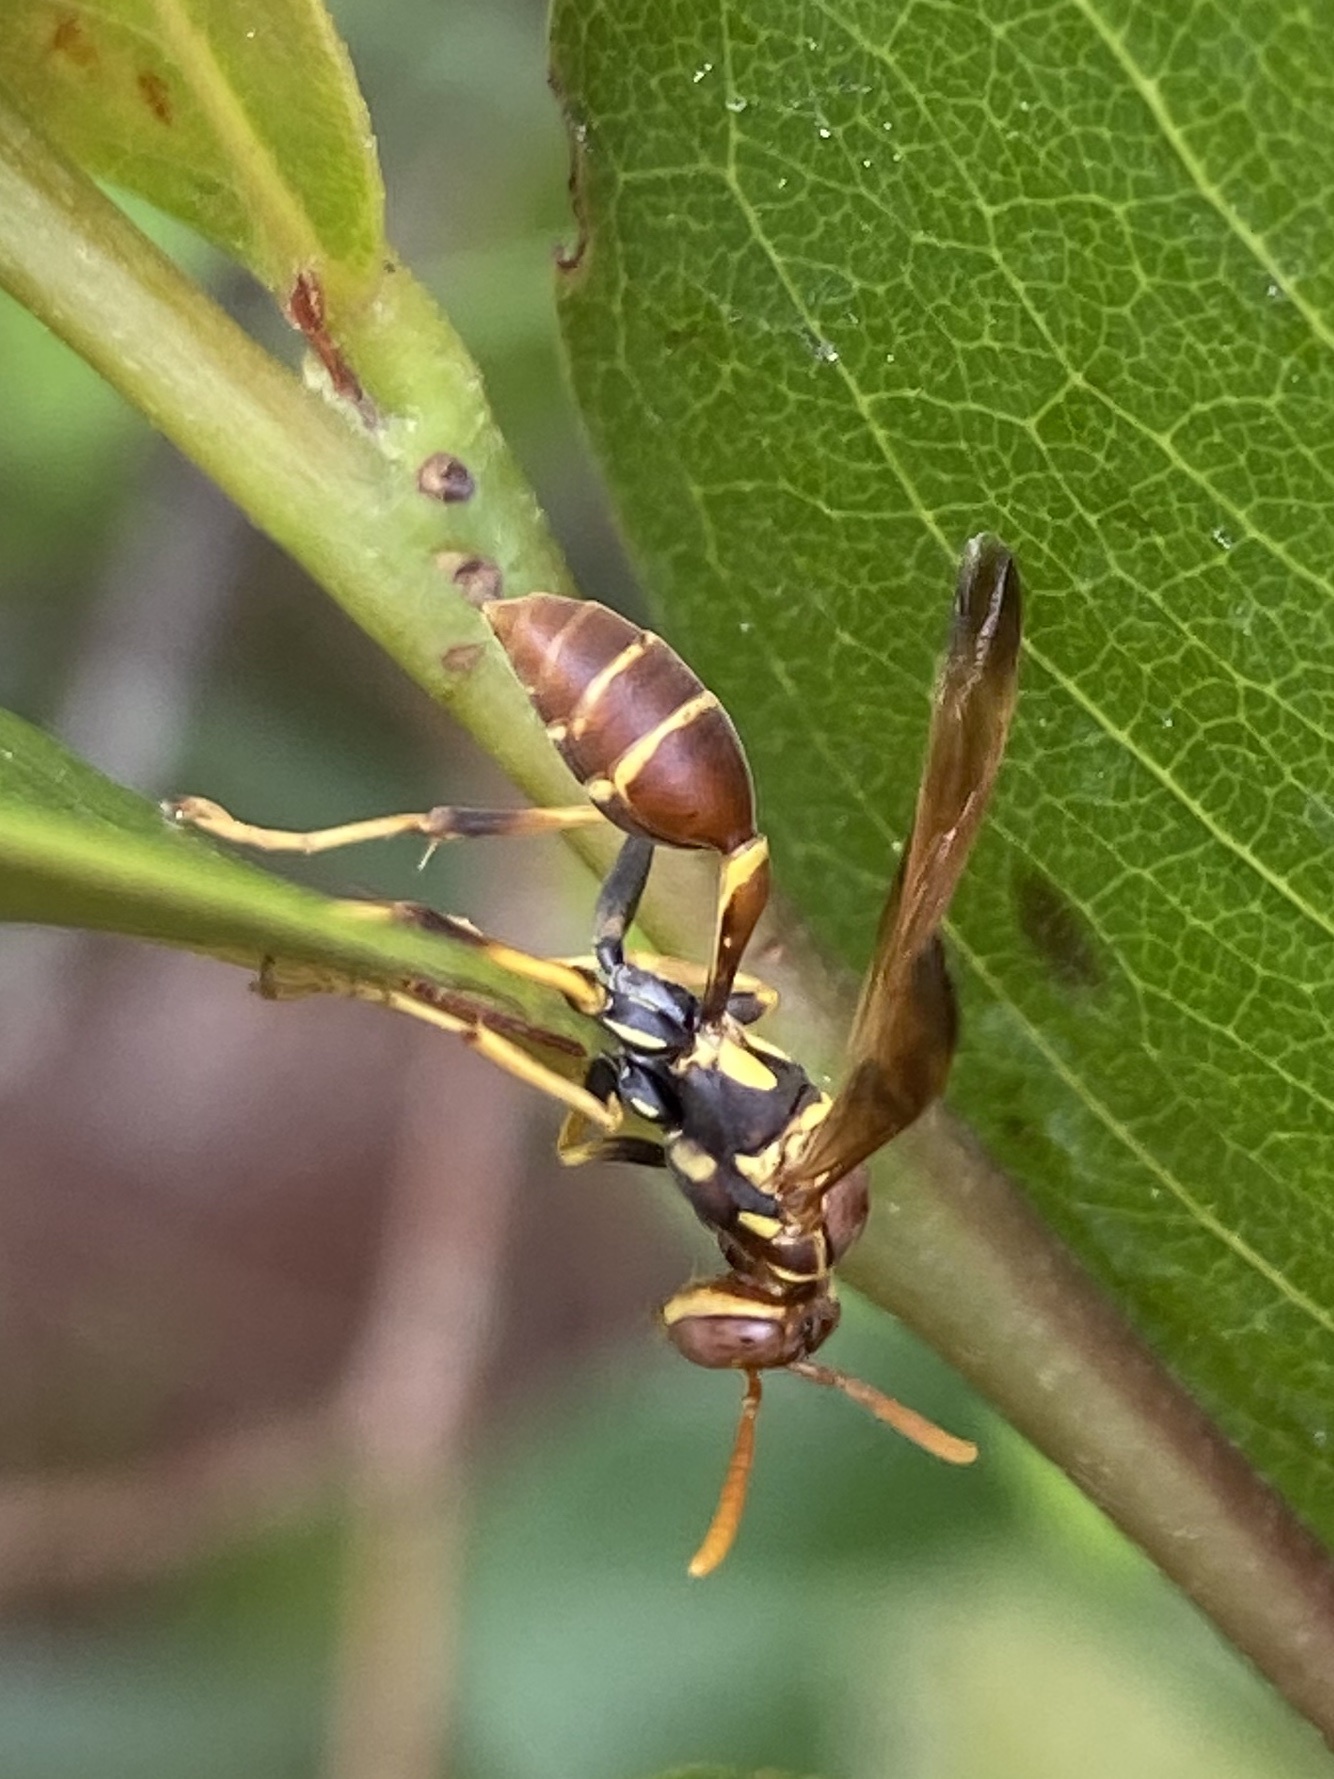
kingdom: Animalia
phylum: Arthropoda
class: Insecta
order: Hymenoptera
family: Vespidae
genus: Mischocyttarus
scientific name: Mischocyttarus mexicanus
